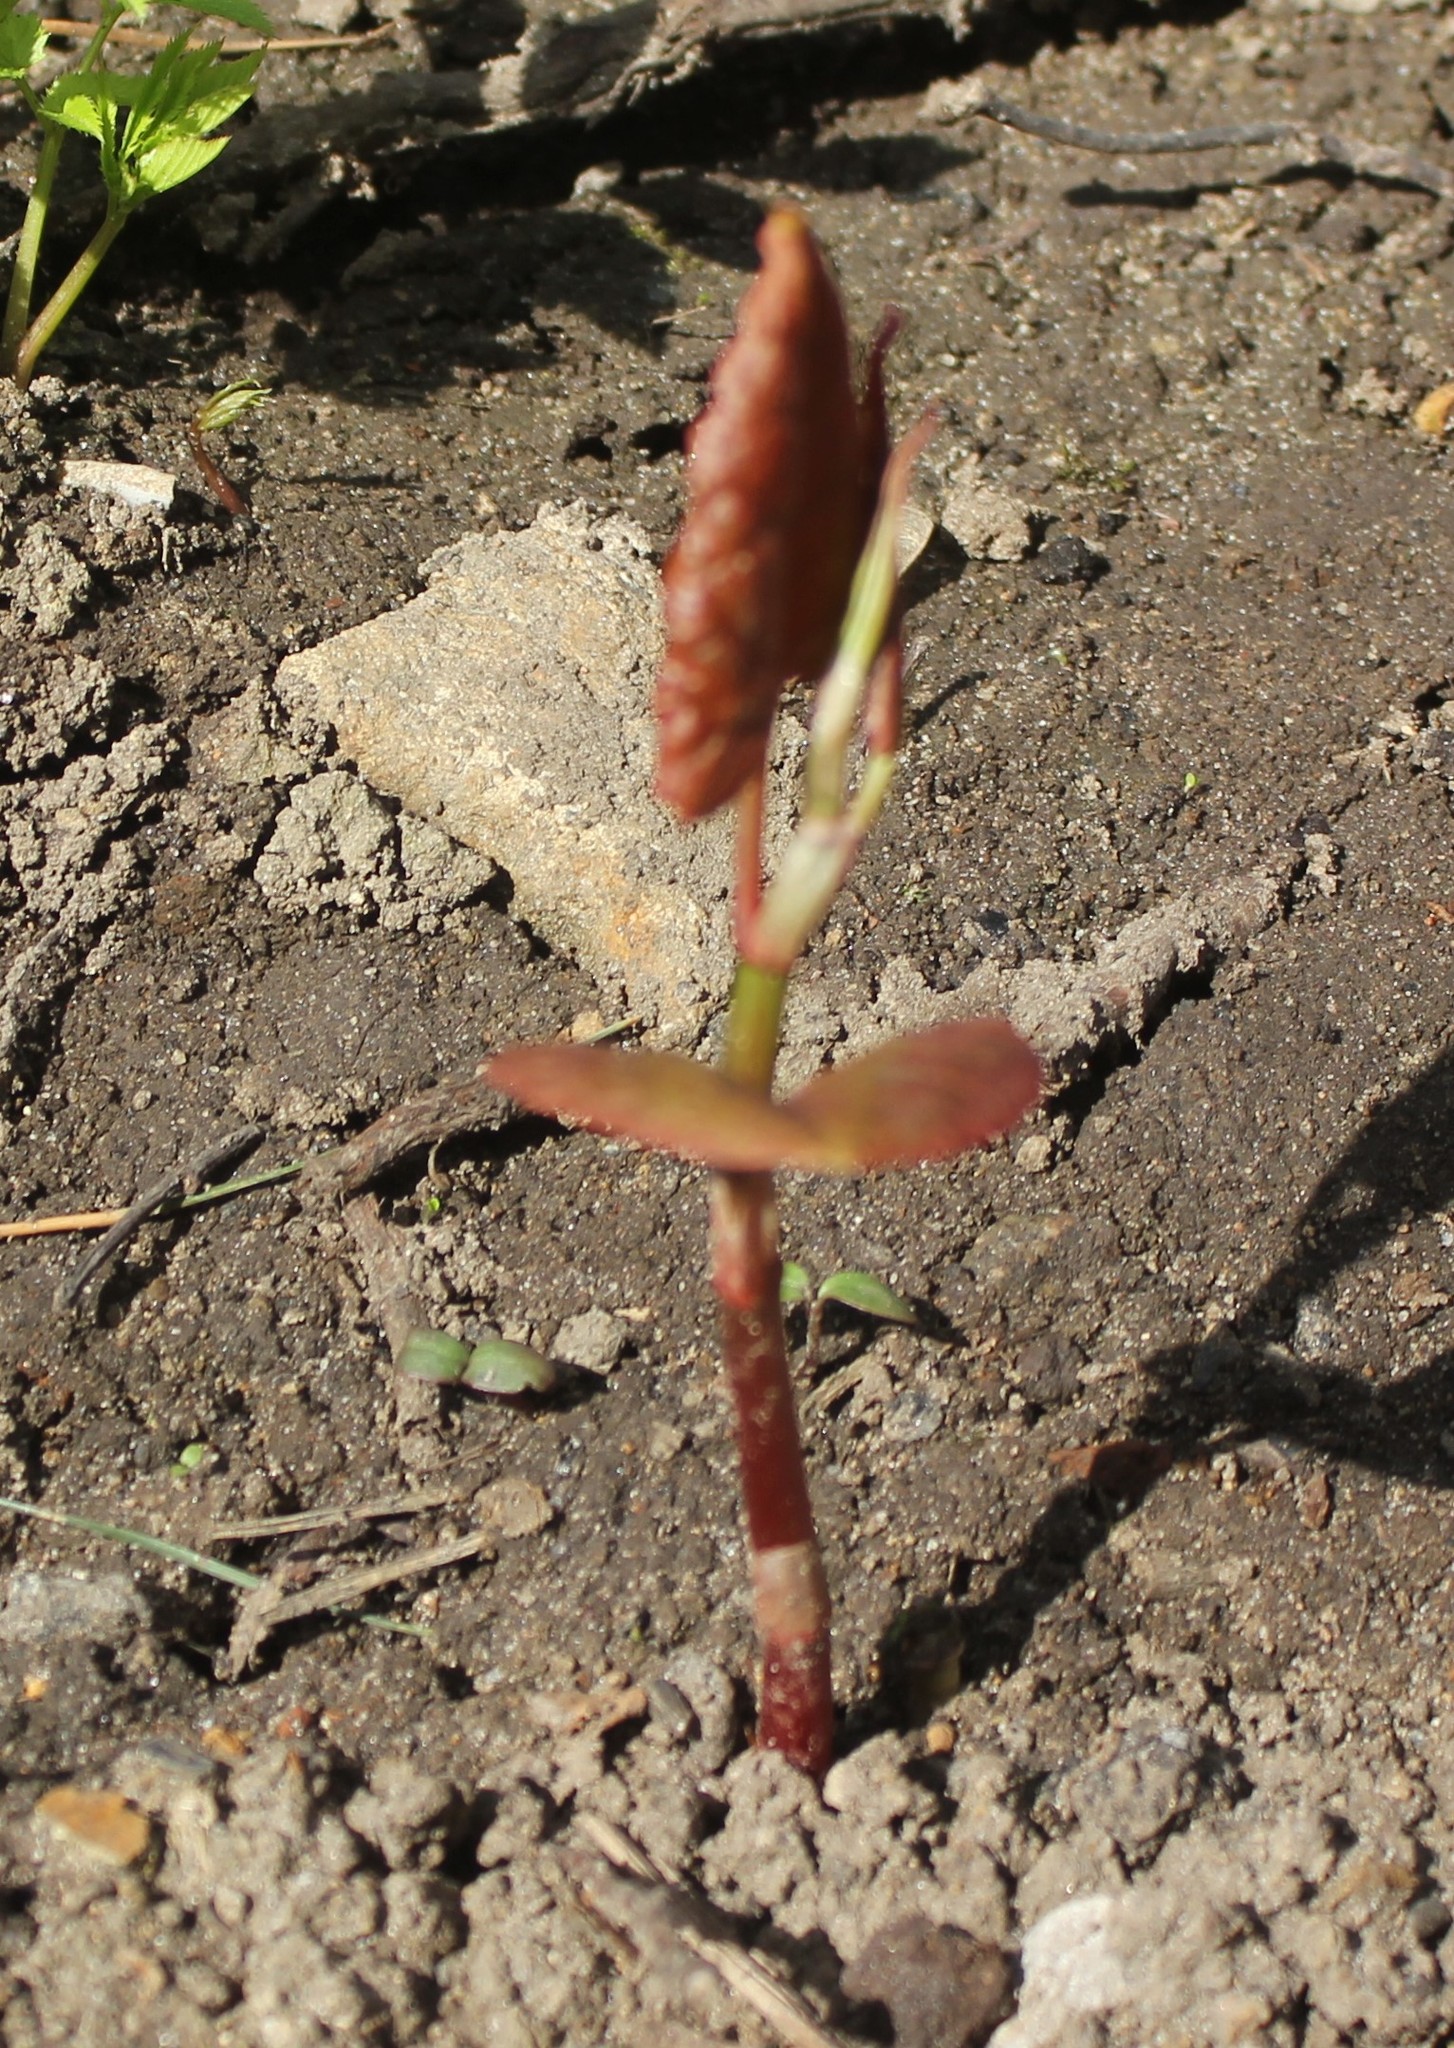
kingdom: Plantae
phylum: Tracheophyta
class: Magnoliopsida
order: Caryophyllales
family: Polygonaceae
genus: Reynoutria
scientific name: Reynoutria bohemica
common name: Bohemian knotweed
